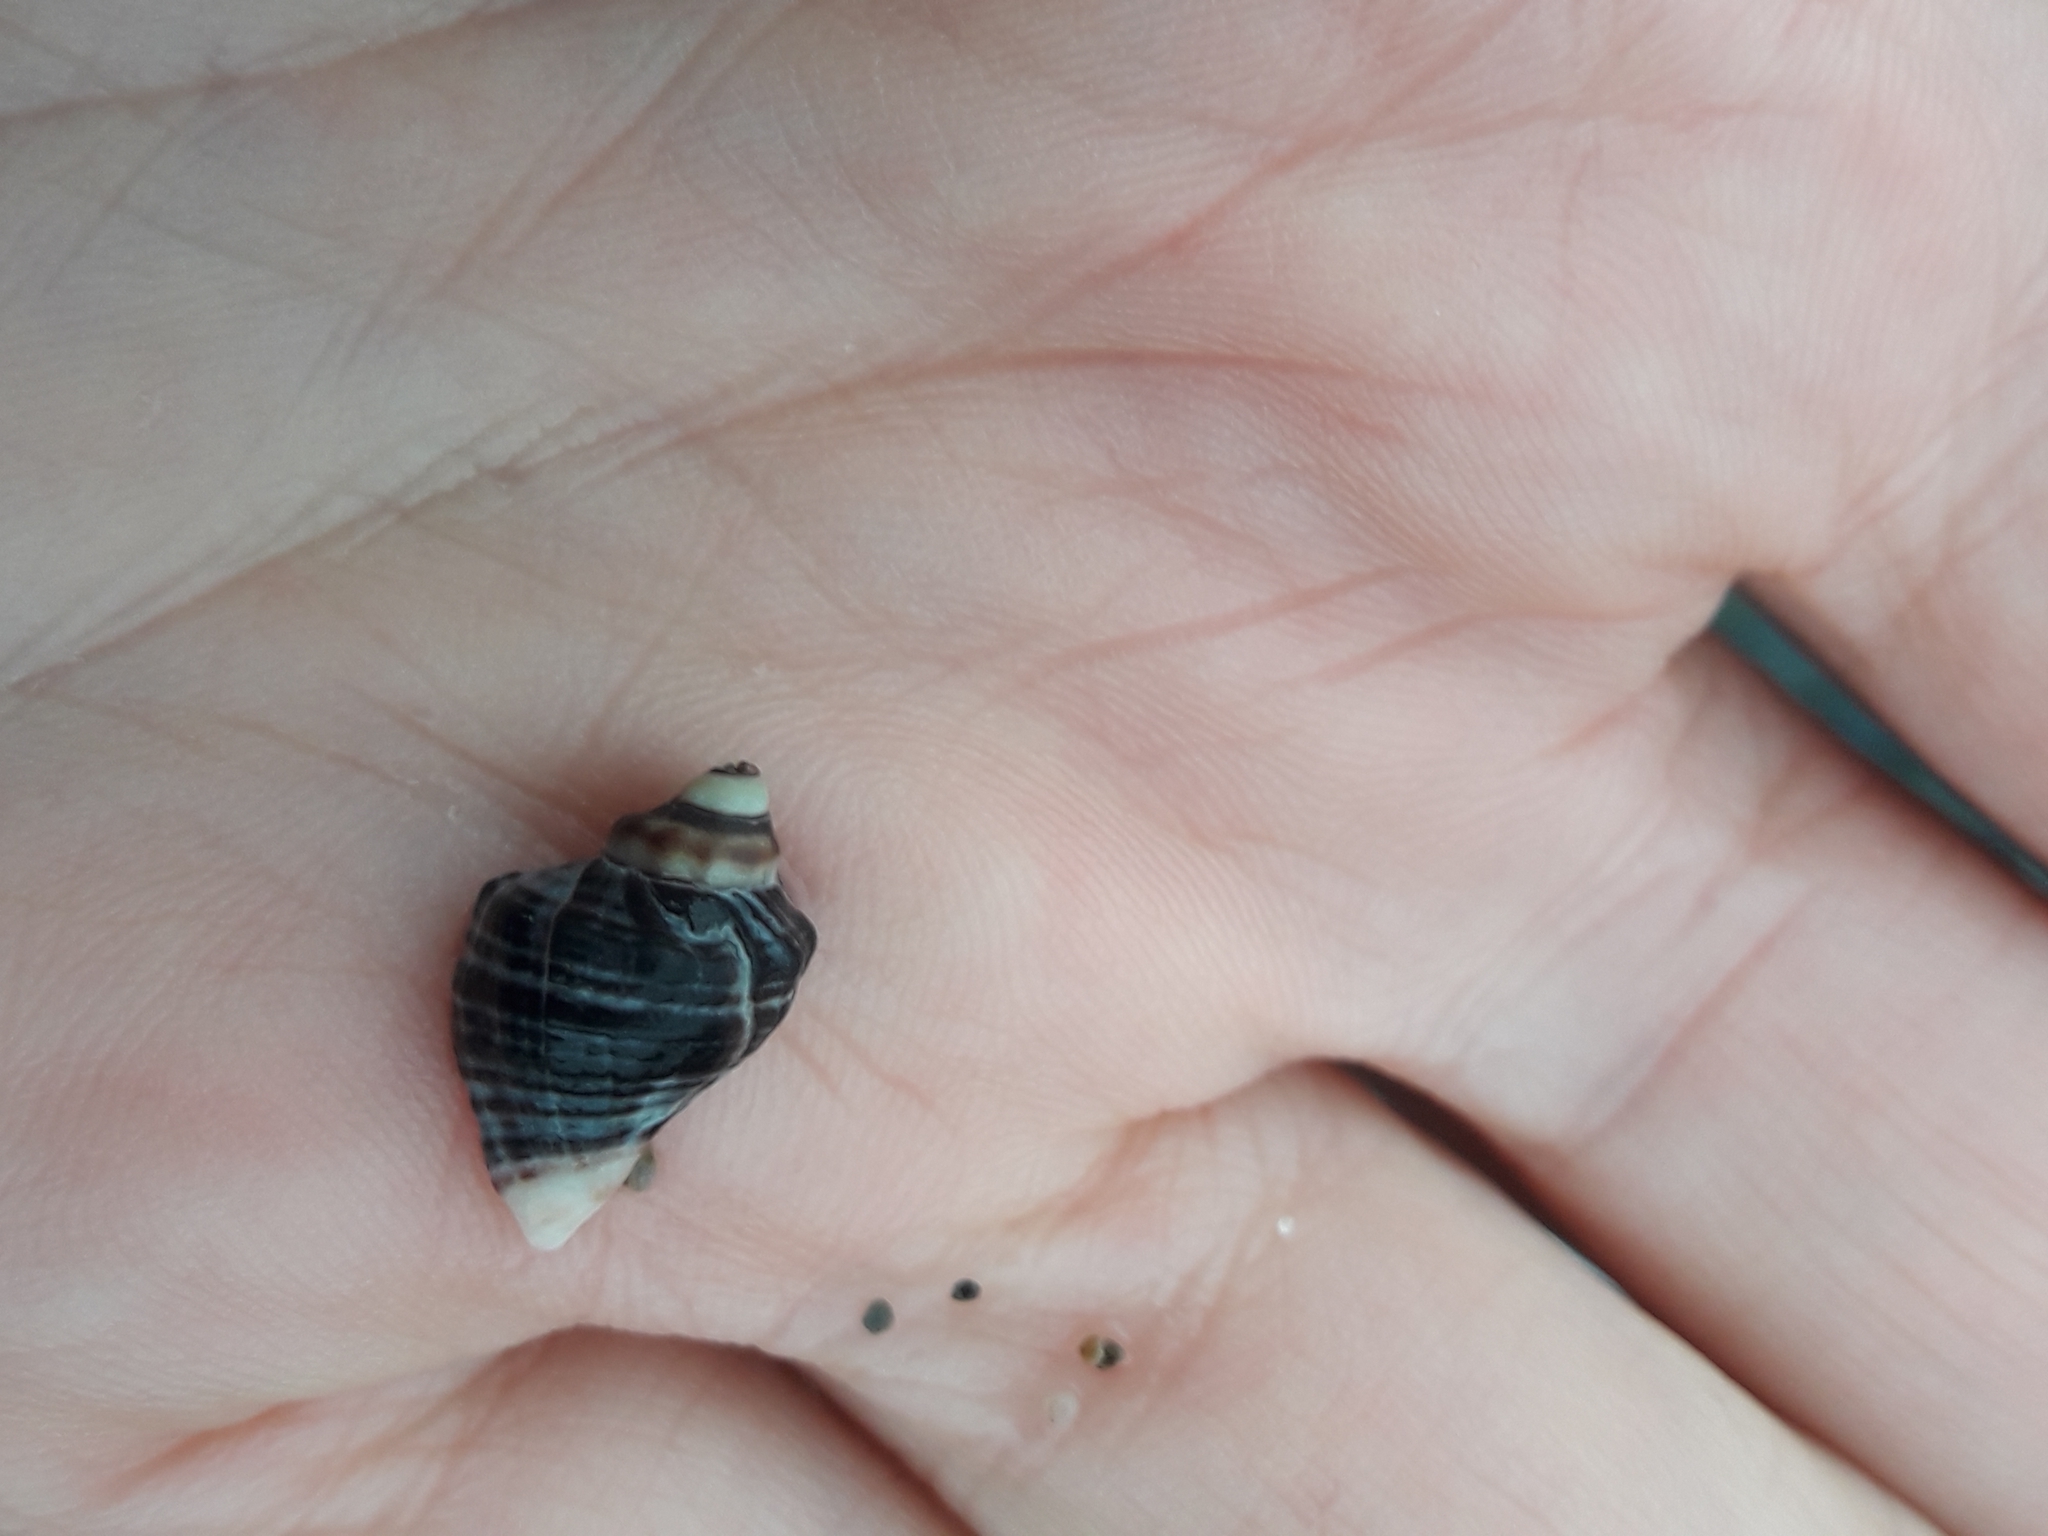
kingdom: Animalia
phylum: Mollusca
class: Gastropoda
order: Neogastropoda
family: Muricidae
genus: Haustrum
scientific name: Haustrum haustorium
